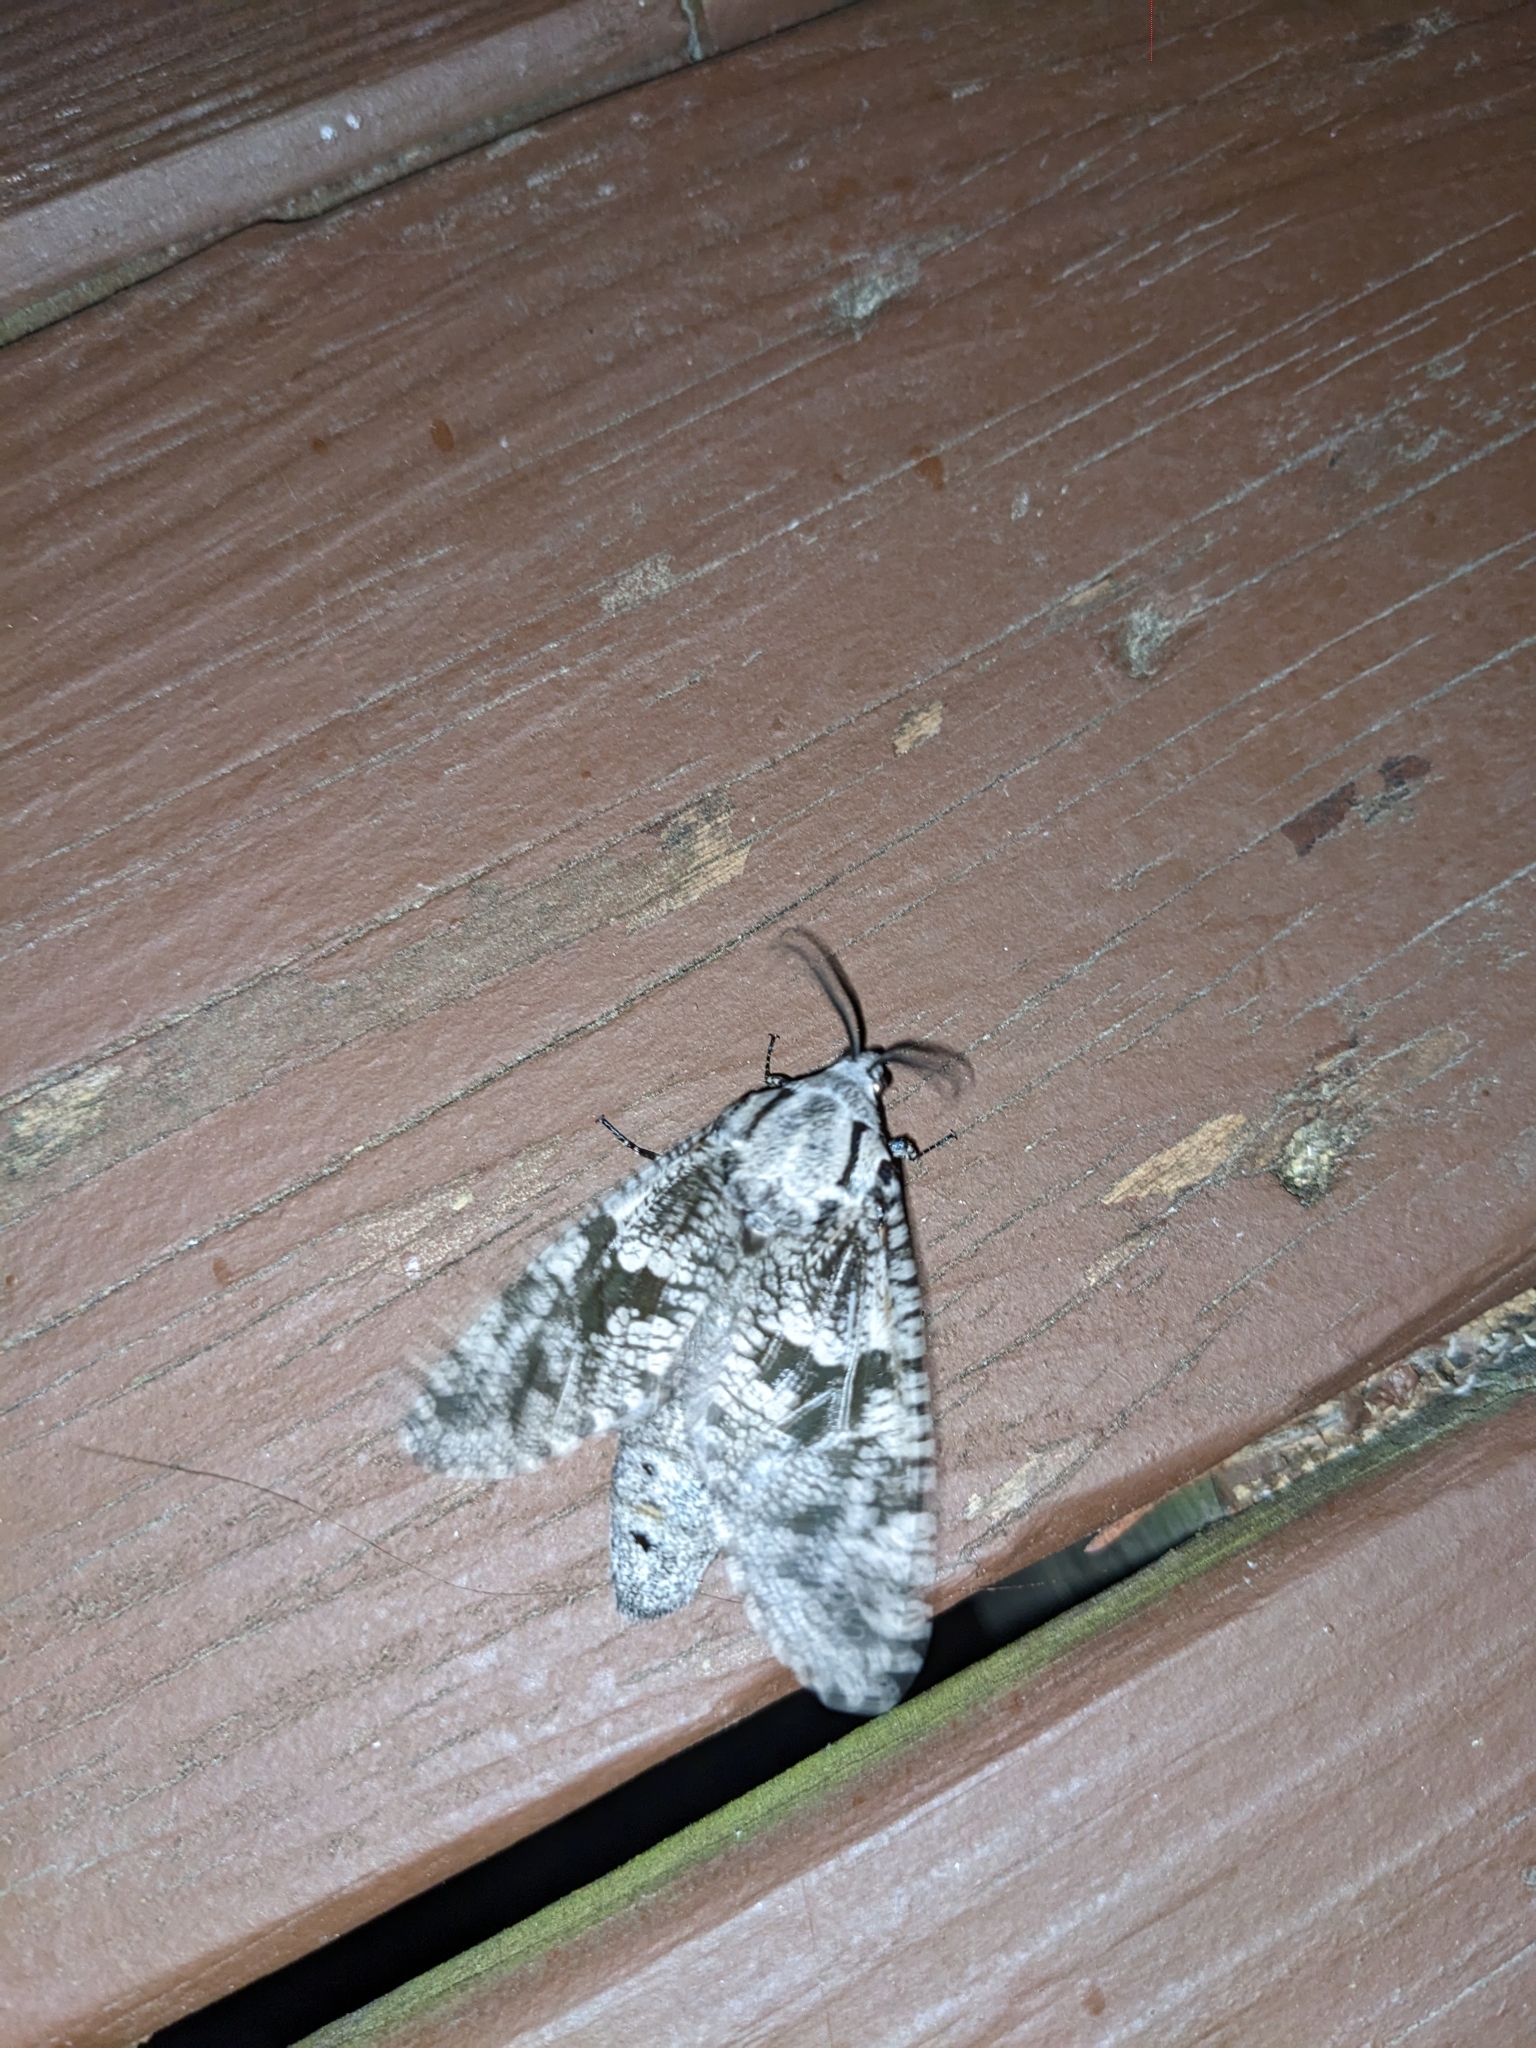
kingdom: Animalia
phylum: Arthropoda
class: Insecta
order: Lepidoptera
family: Cossidae
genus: Prionoxystus
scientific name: Prionoxystus robiniae
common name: Carpenterworm
